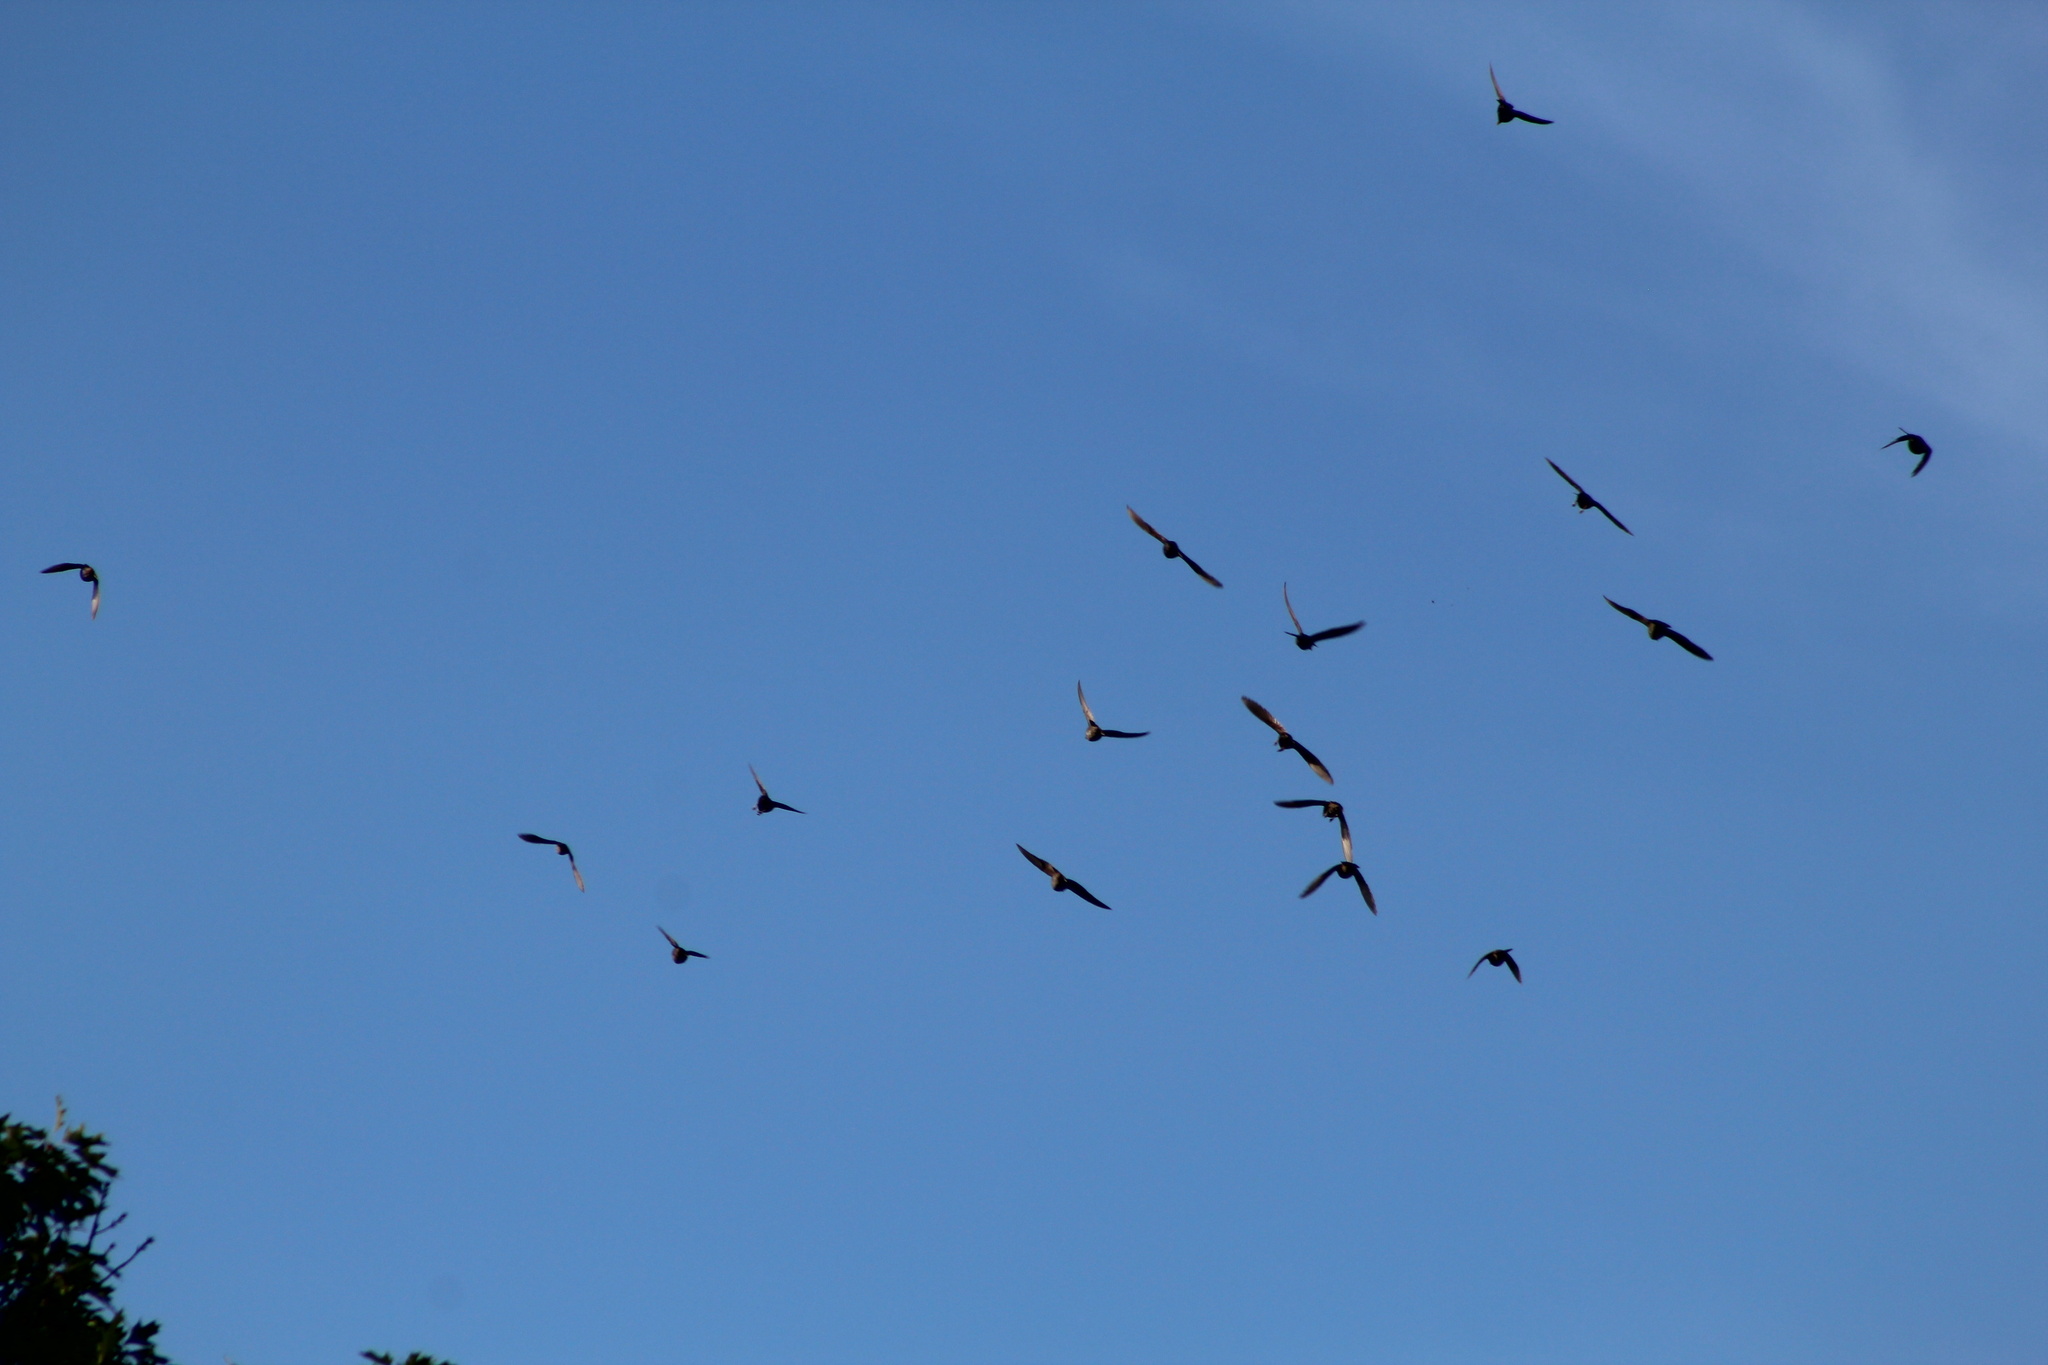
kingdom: Animalia
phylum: Chordata
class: Aves
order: Apodiformes
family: Apodidae
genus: Chaetura
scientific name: Chaetura pelagica
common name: Chimney swift
